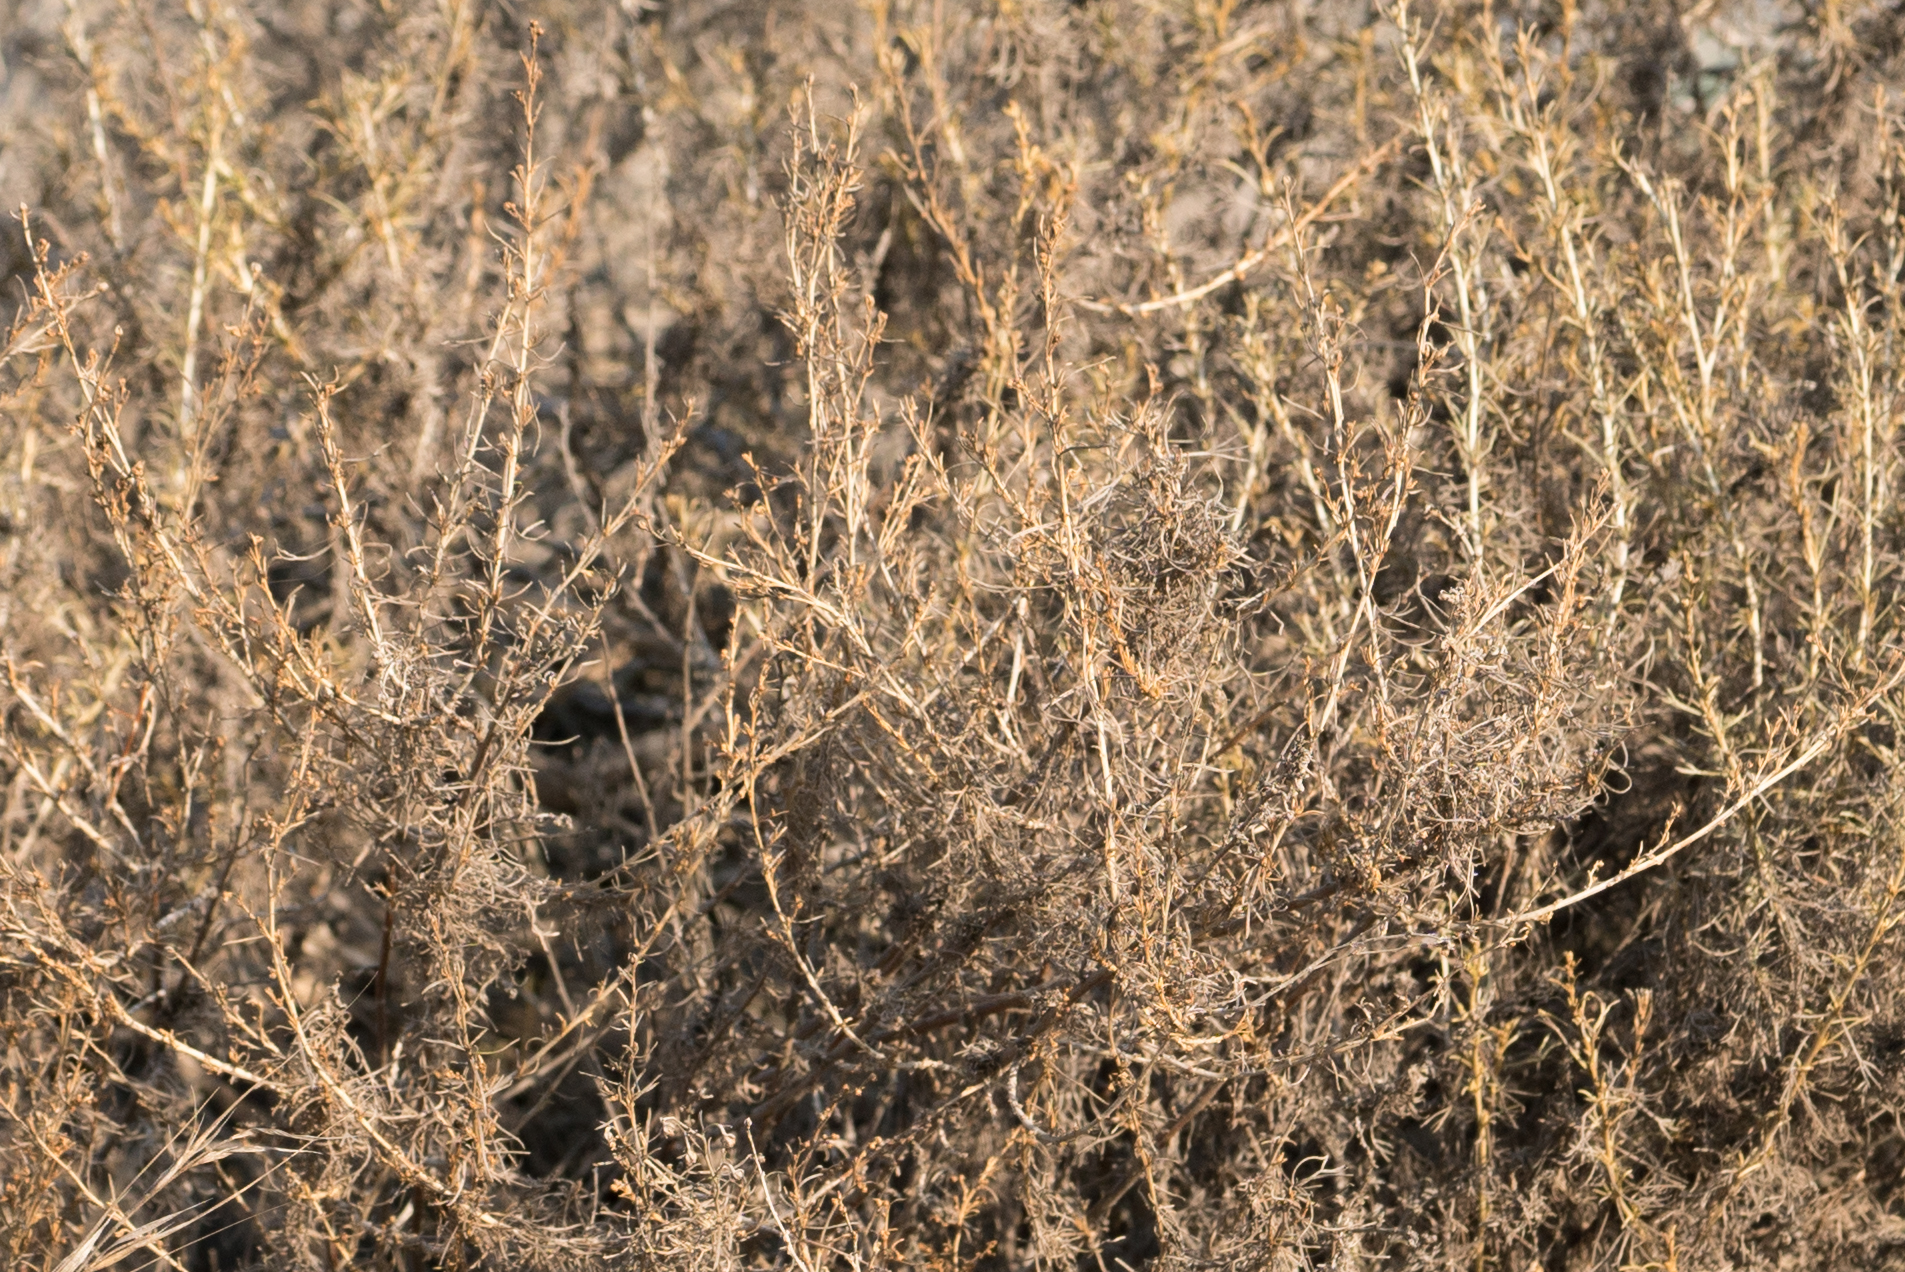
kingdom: Plantae
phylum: Tracheophyta
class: Magnoliopsida
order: Asterales
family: Asteraceae
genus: Artemisia
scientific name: Artemisia californica
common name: California sagebrush
